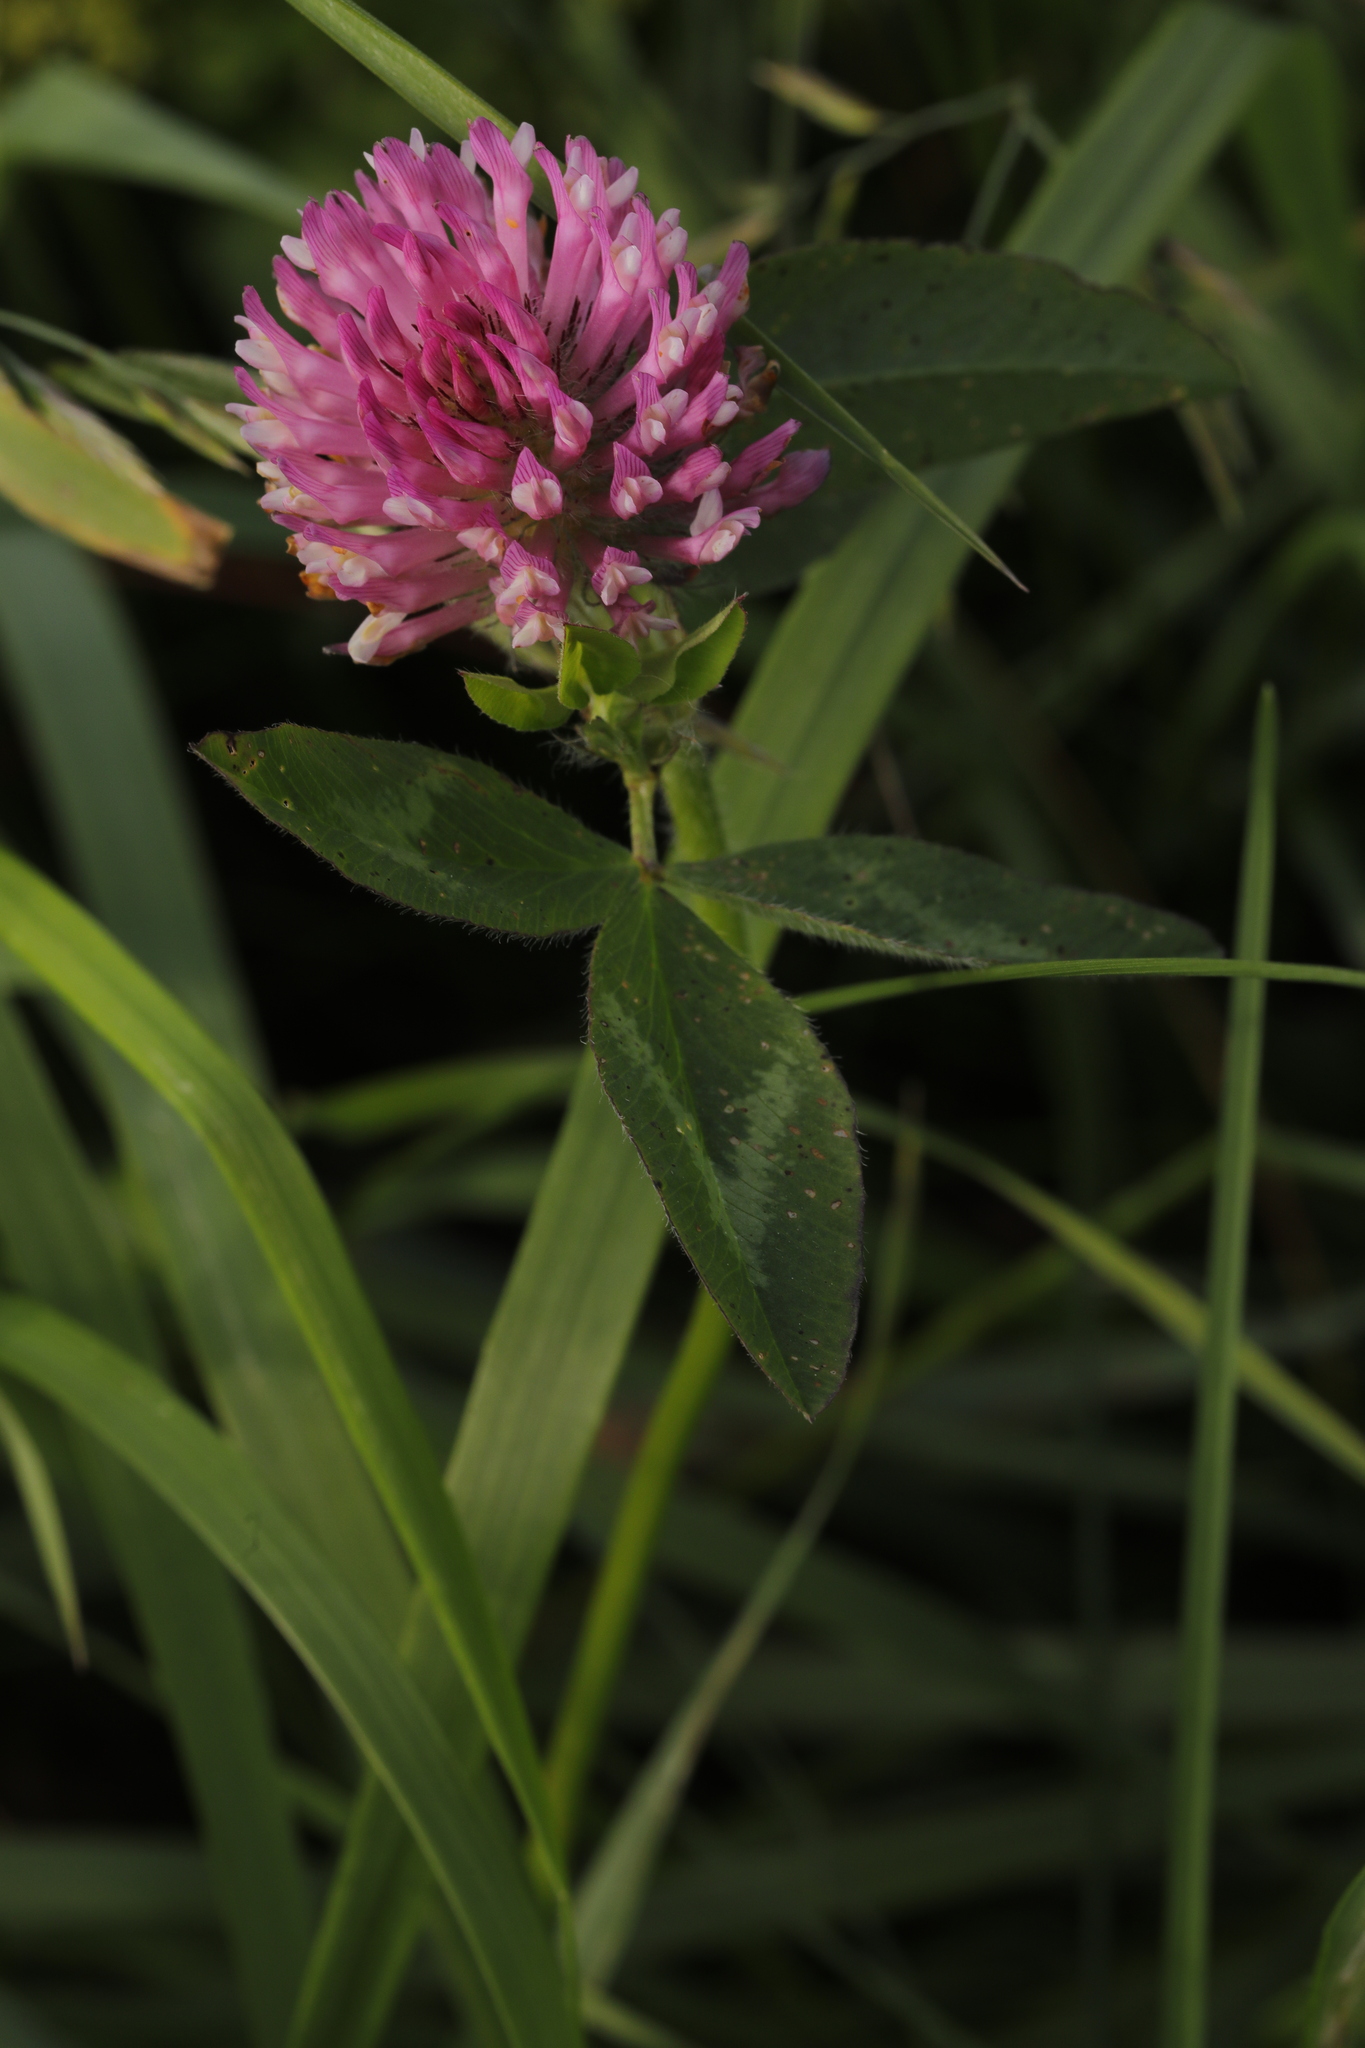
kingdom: Plantae
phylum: Tracheophyta
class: Magnoliopsida
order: Fabales
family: Fabaceae
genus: Trifolium
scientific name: Trifolium pratense
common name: Red clover
